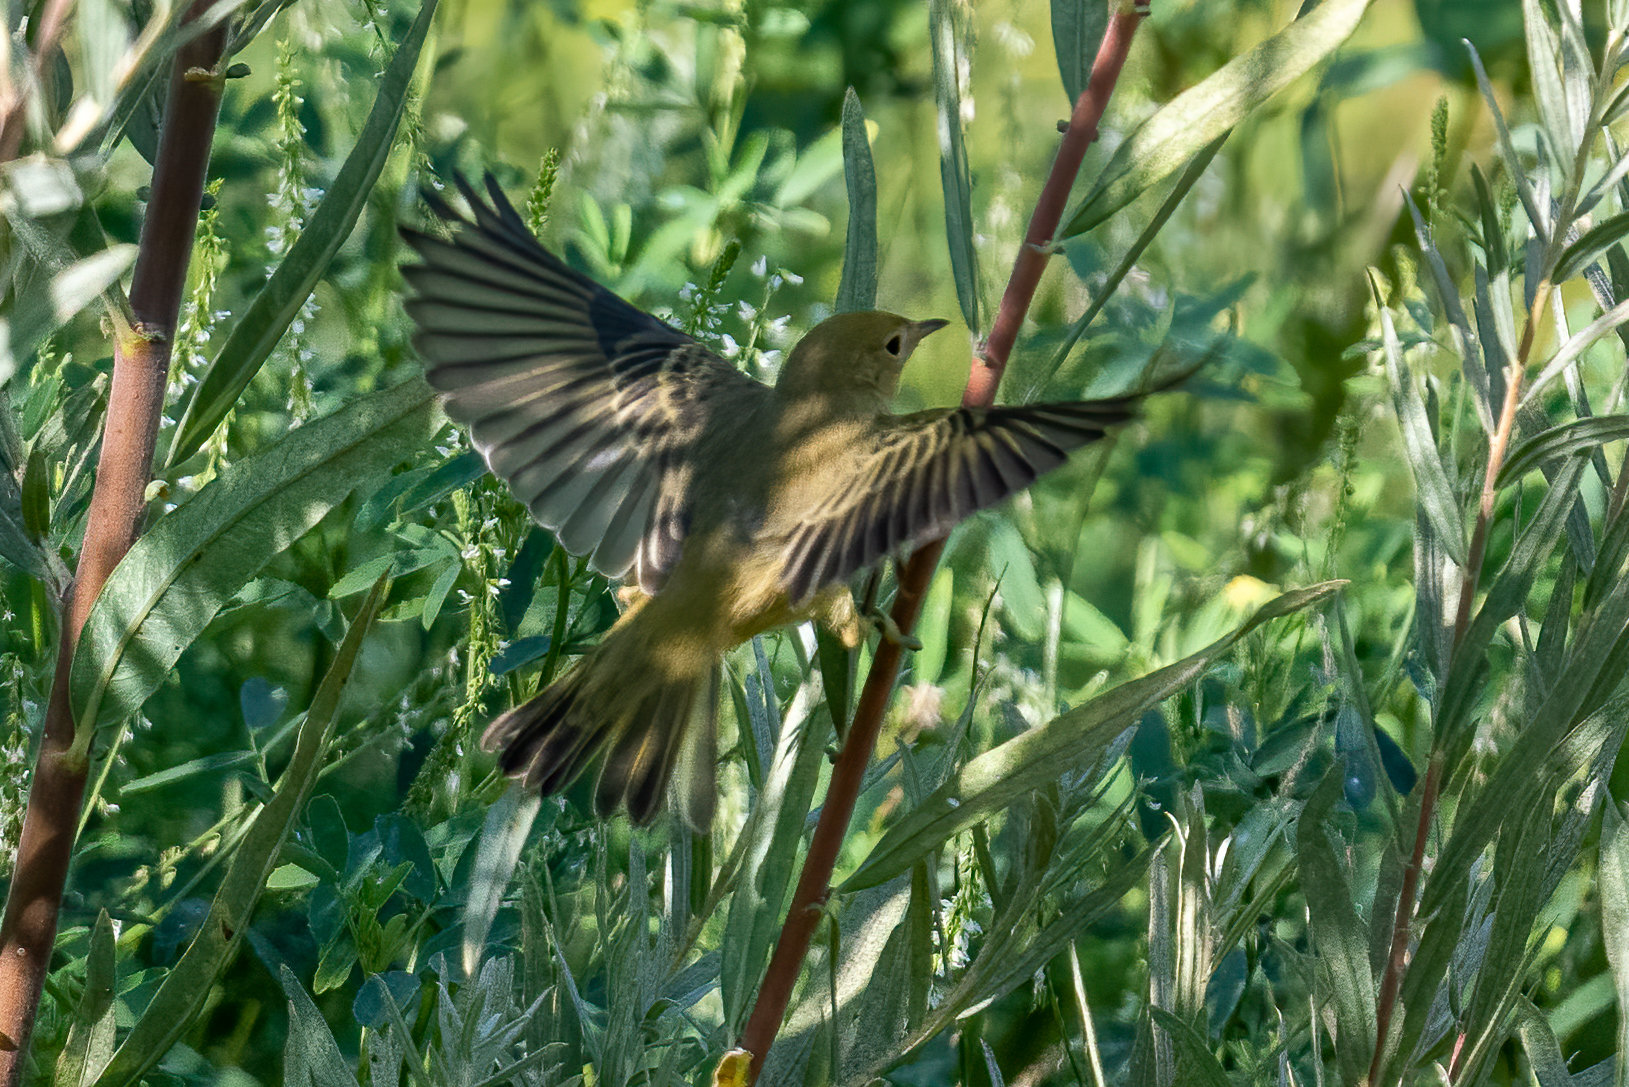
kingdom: Animalia
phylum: Chordata
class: Aves
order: Passeriformes
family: Parulidae
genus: Setophaga
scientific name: Setophaga petechia
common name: Yellow warbler
